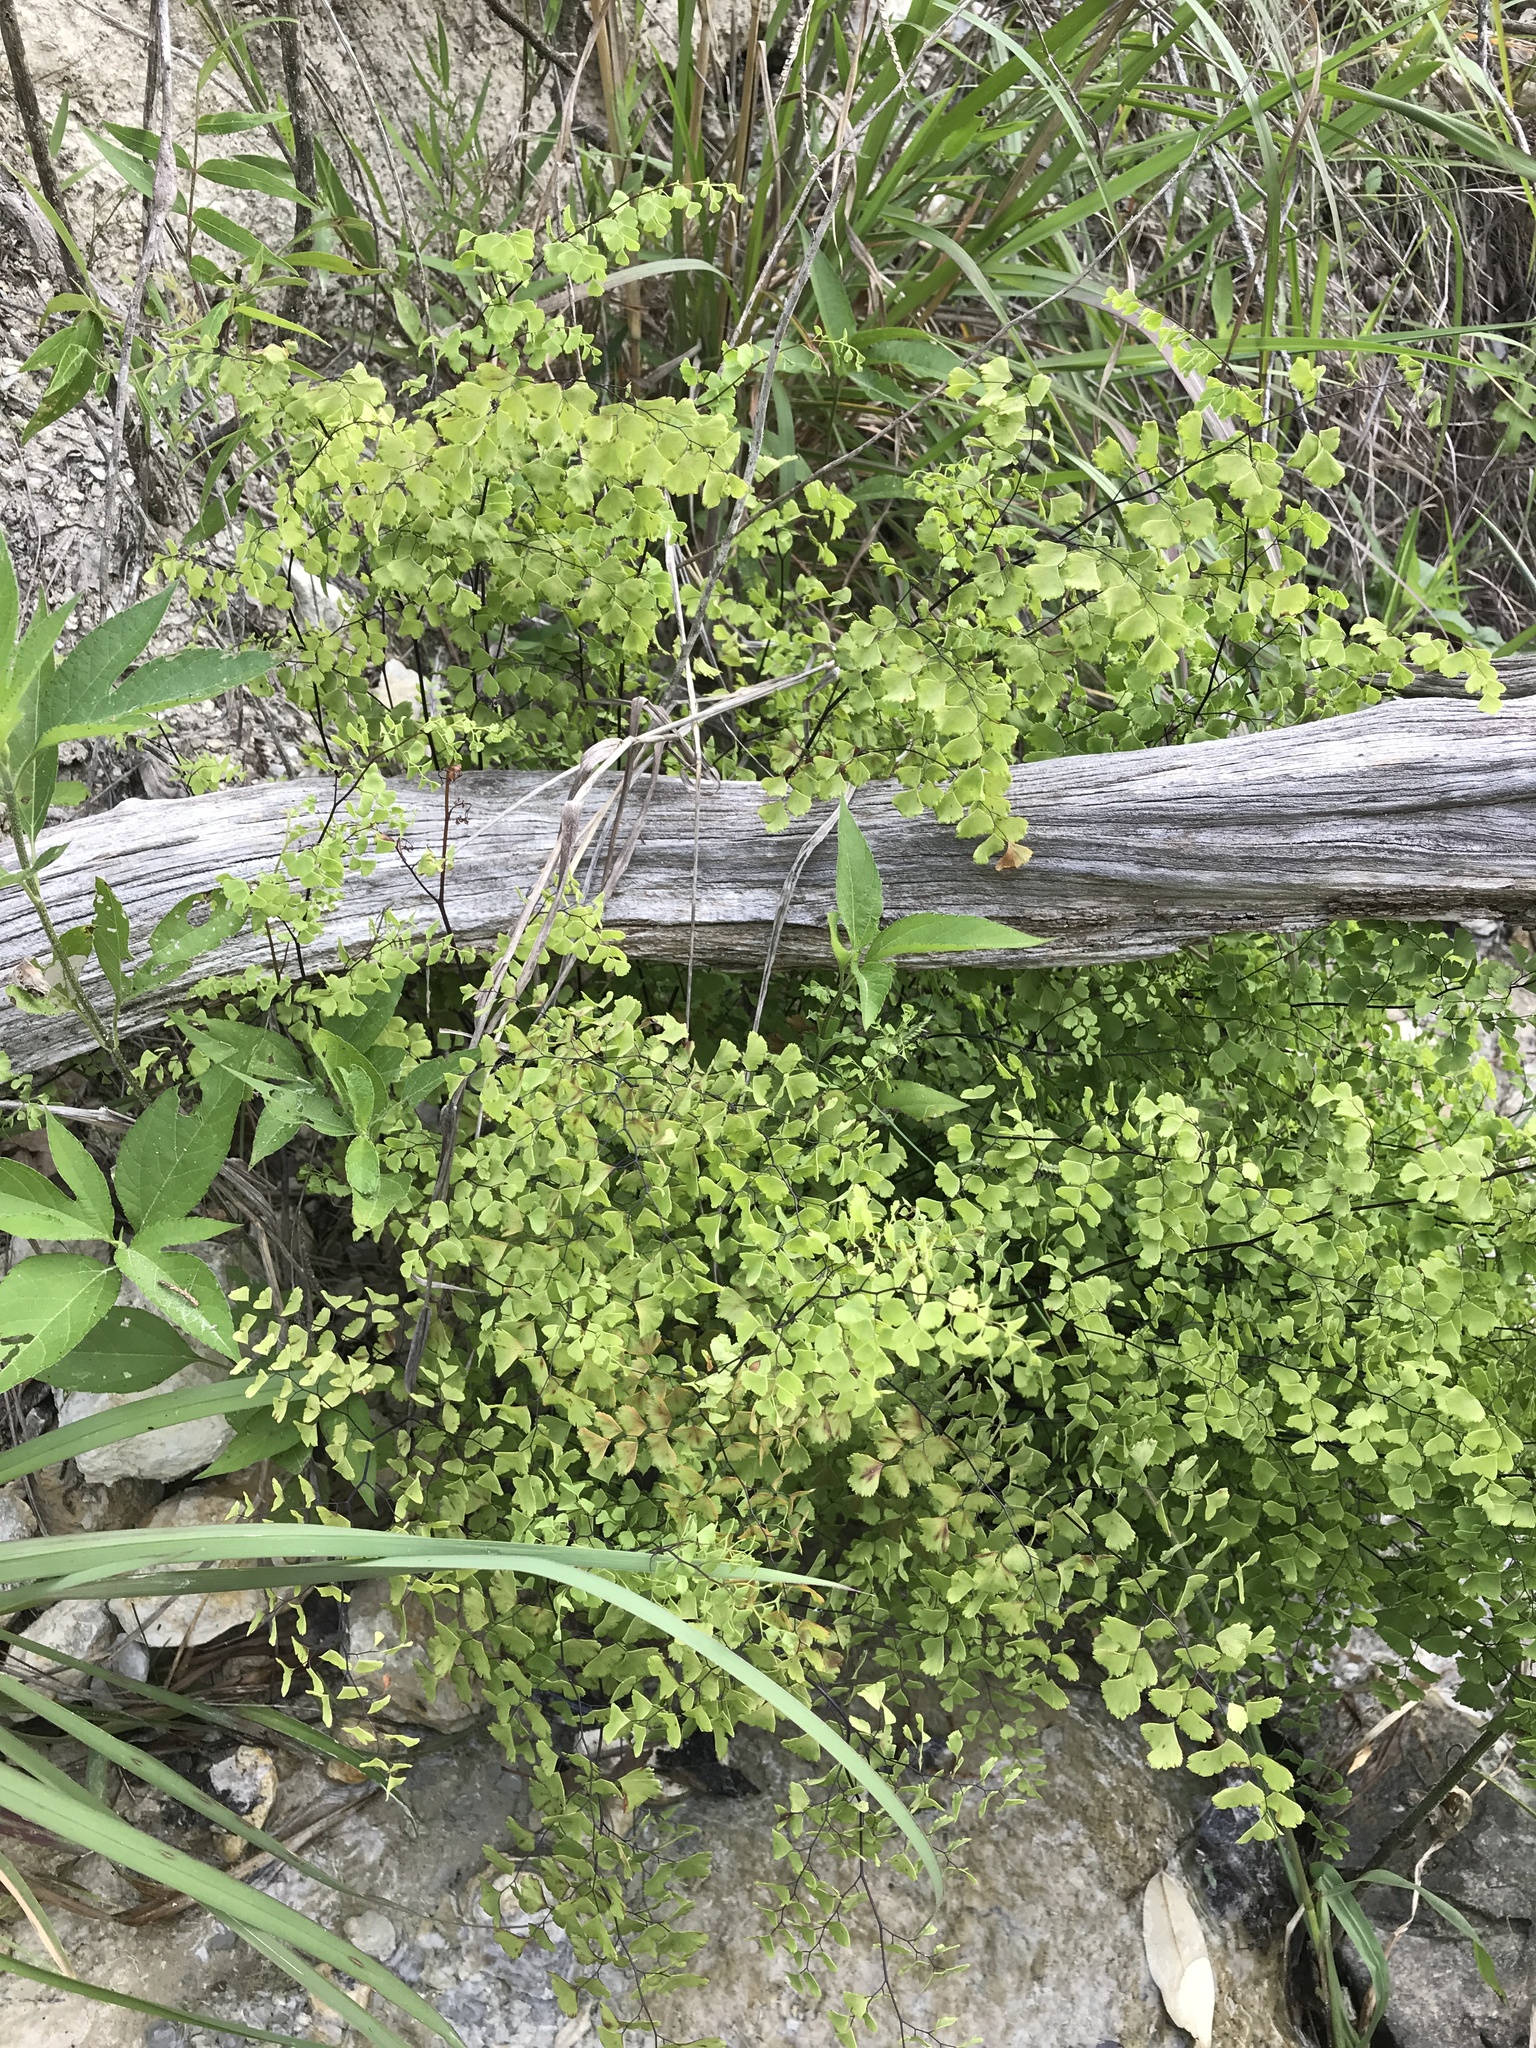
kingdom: Plantae
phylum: Tracheophyta
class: Polypodiopsida
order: Polypodiales
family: Pteridaceae
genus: Adiantum
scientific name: Adiantum capillus-veneris
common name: Maidenhair fern
